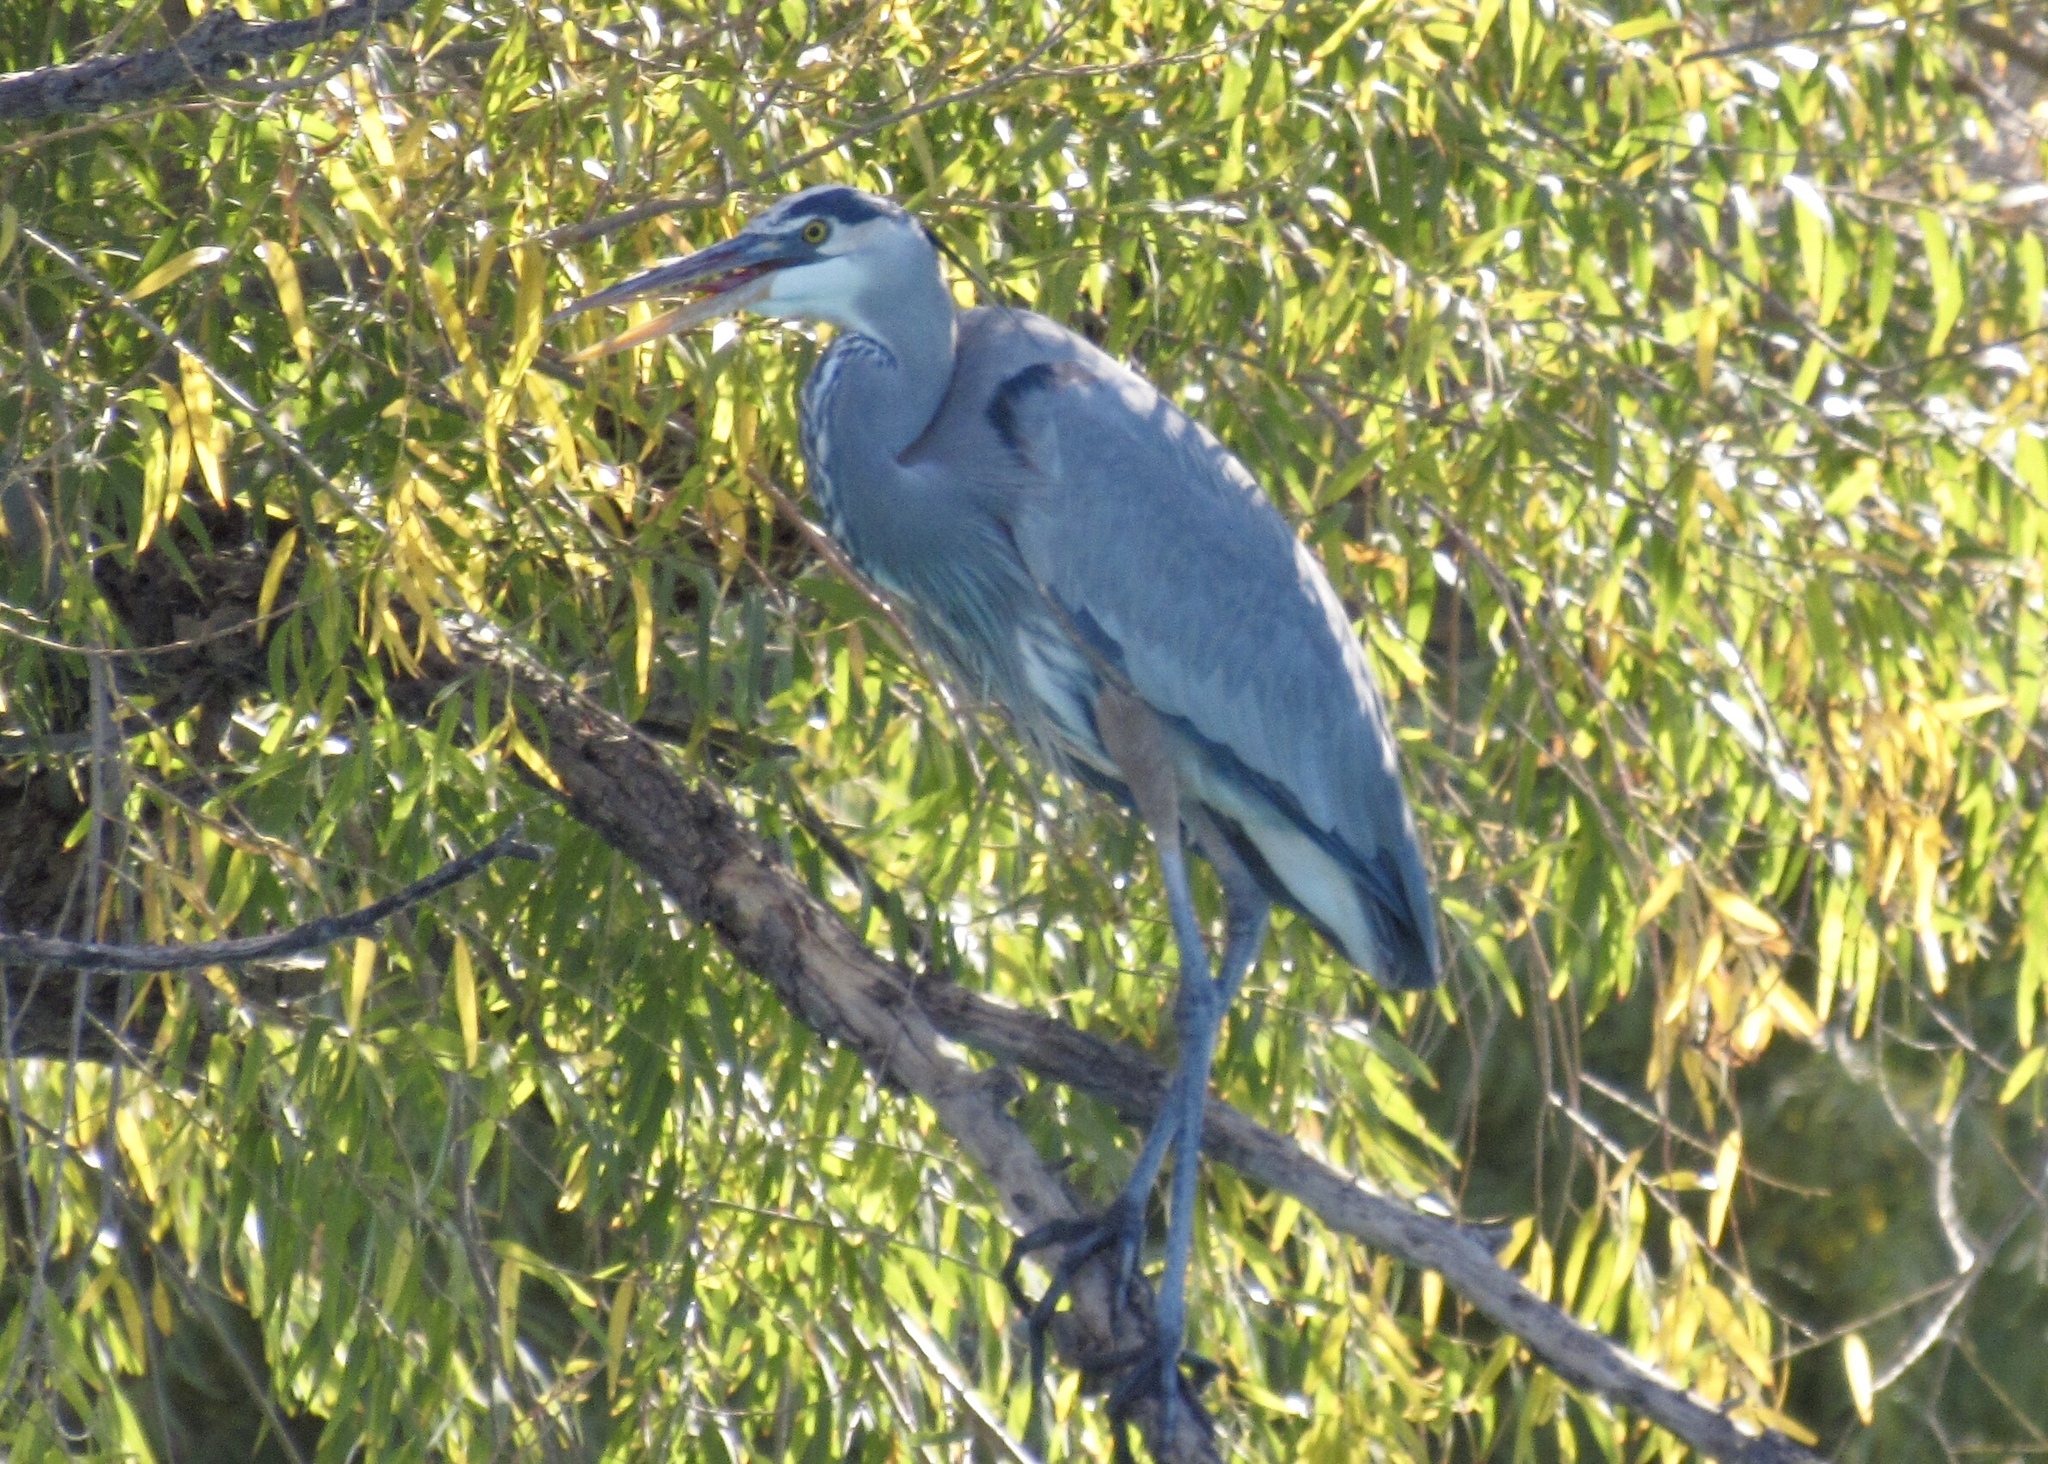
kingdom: Animalia
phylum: Chordata
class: Aves
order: Pelecaniformes
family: Ardeidae
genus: Ardea
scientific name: Ardea herodias
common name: Great blue heron
